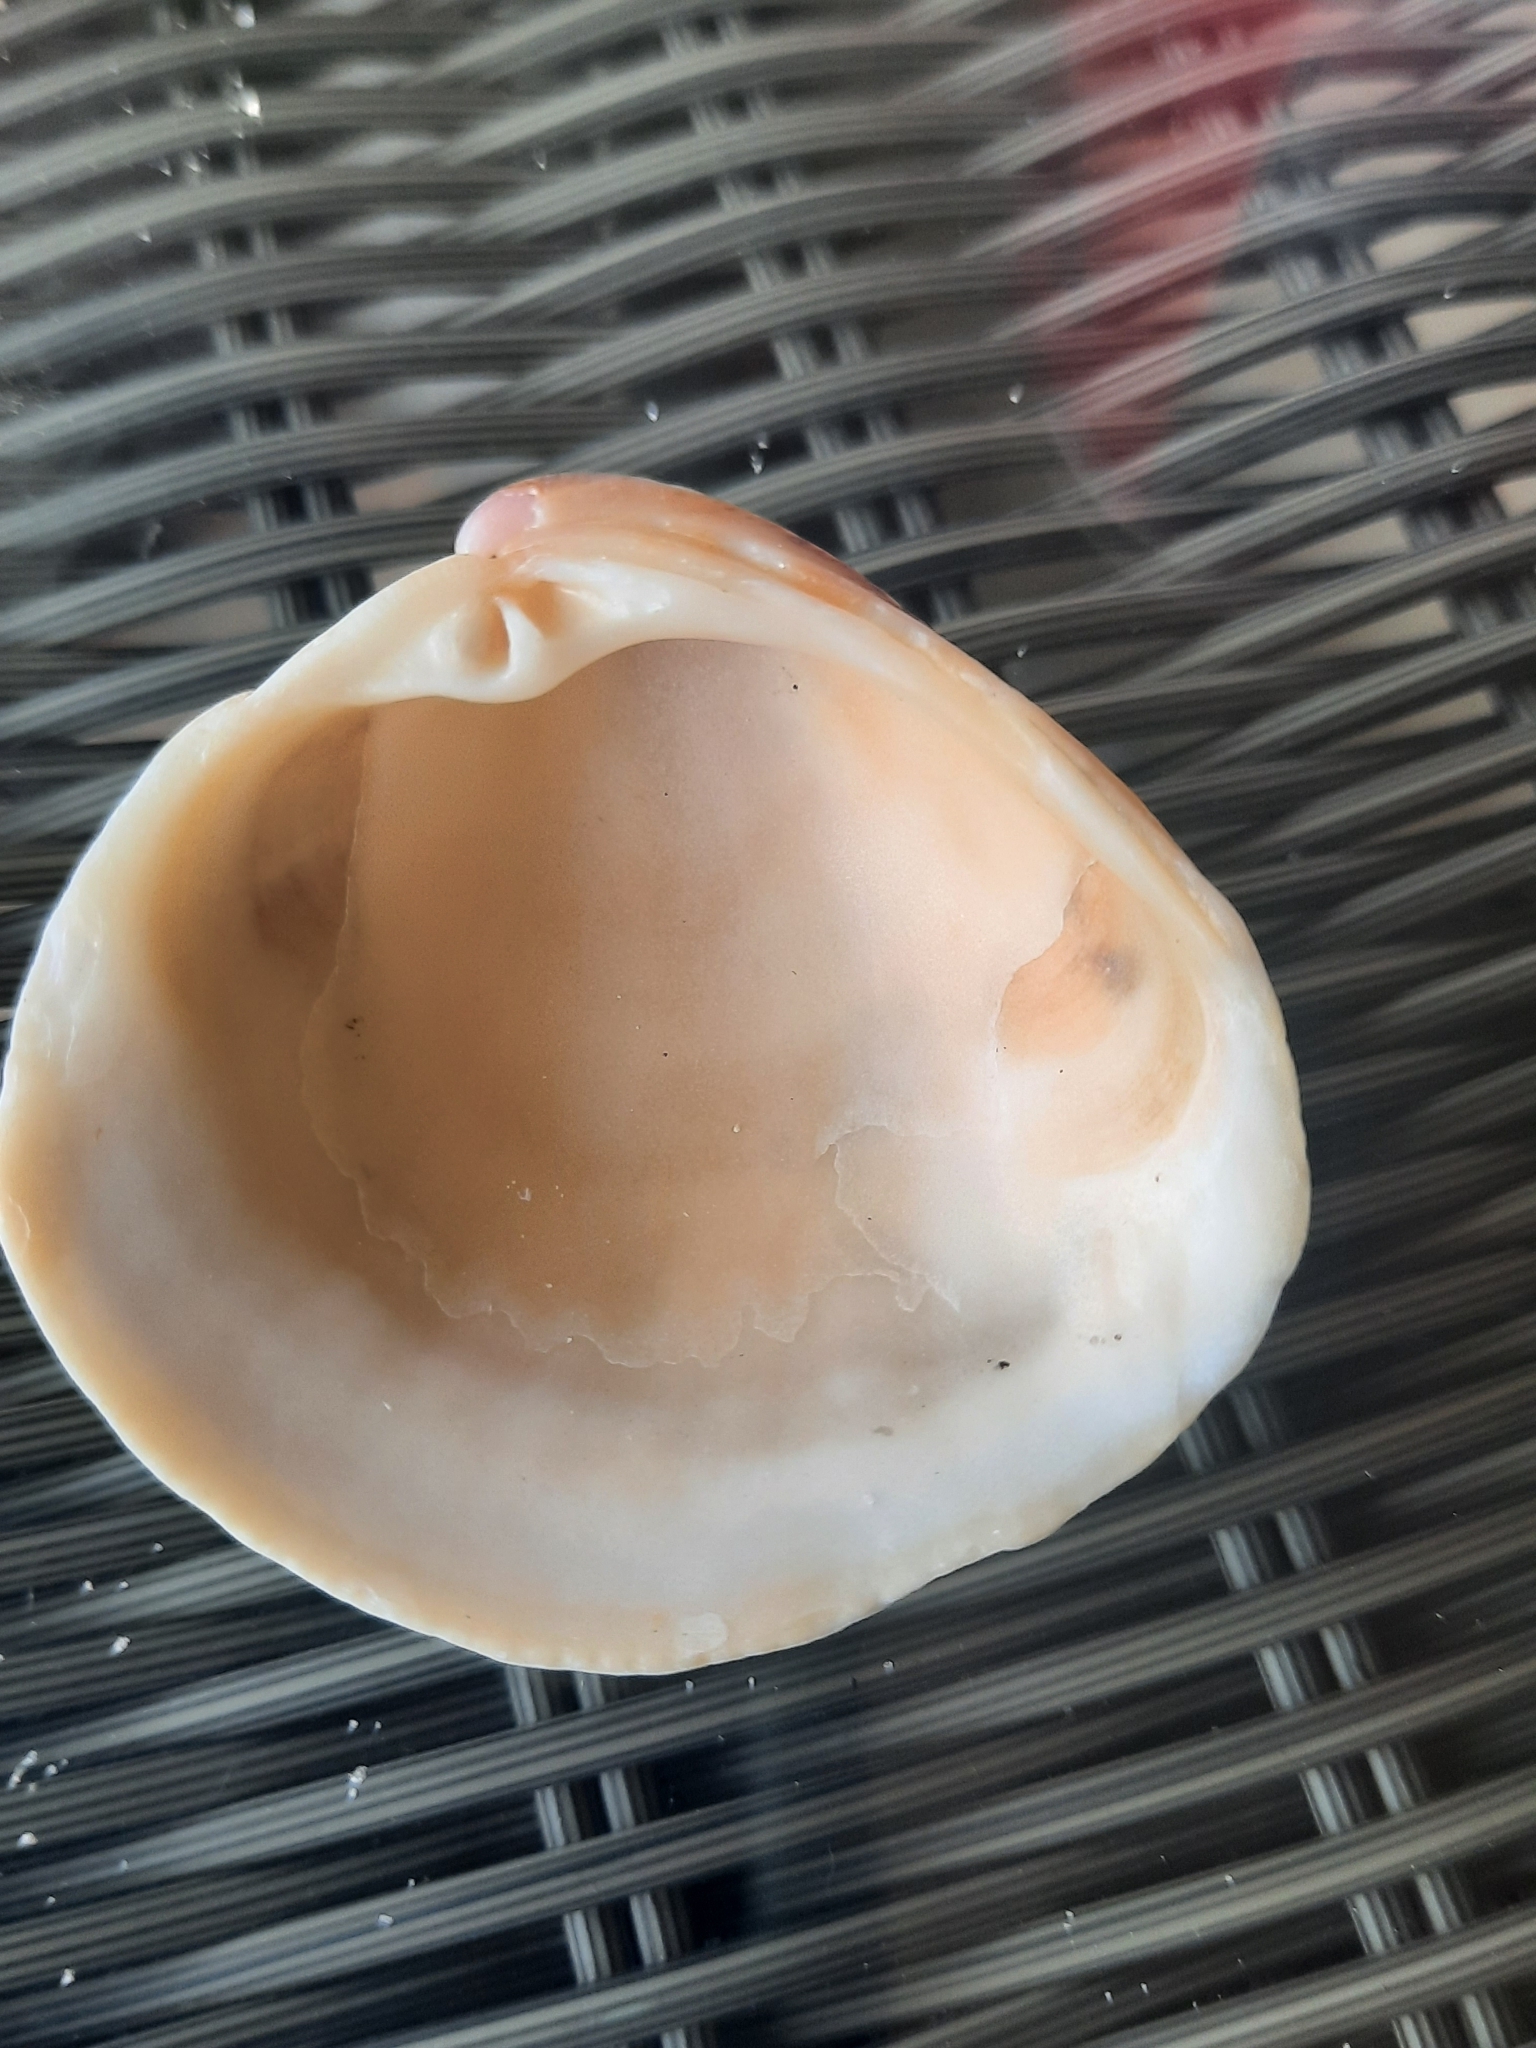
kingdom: Animalia
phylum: Mollusca
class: Bivalvia
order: Venerida
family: Veneridae
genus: Chionopsis
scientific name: Chionopsis intapurpurea
